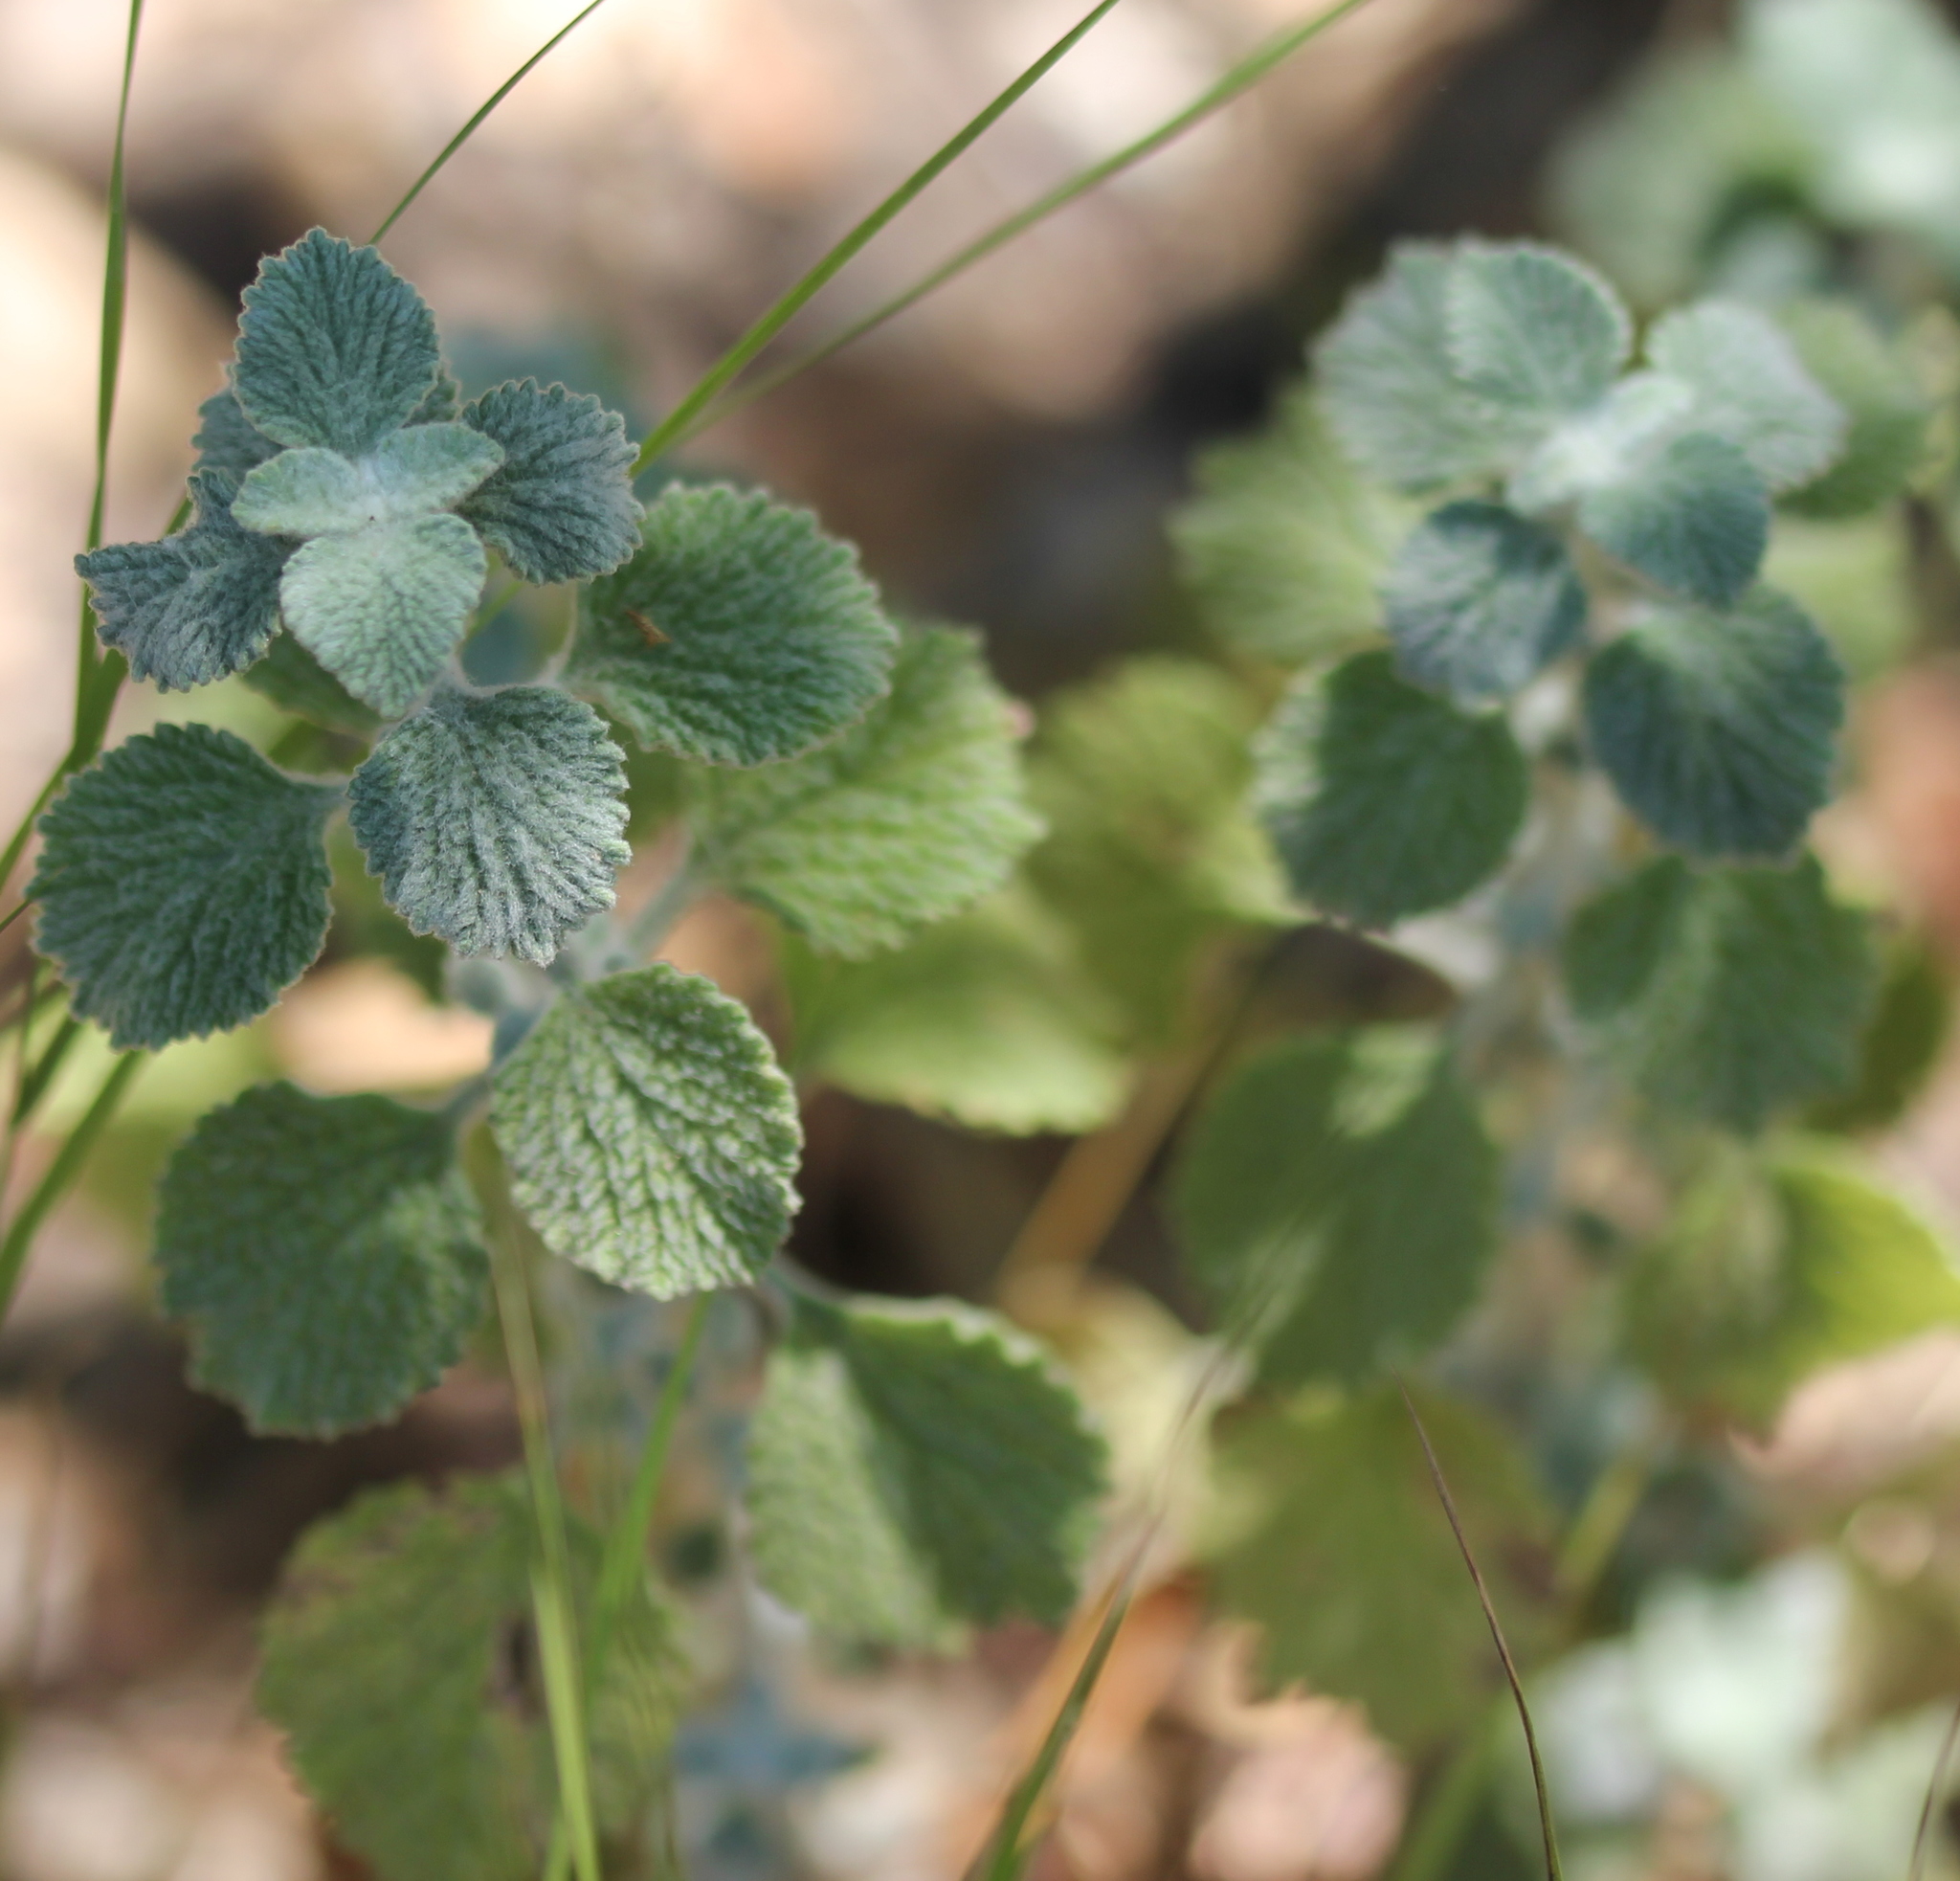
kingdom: Plantae
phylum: Tracheophyta
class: Magnoliopsida
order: Lamiales
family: Lamiaceae
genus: Marrubium
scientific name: Marrubium vulgare
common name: Horehound
